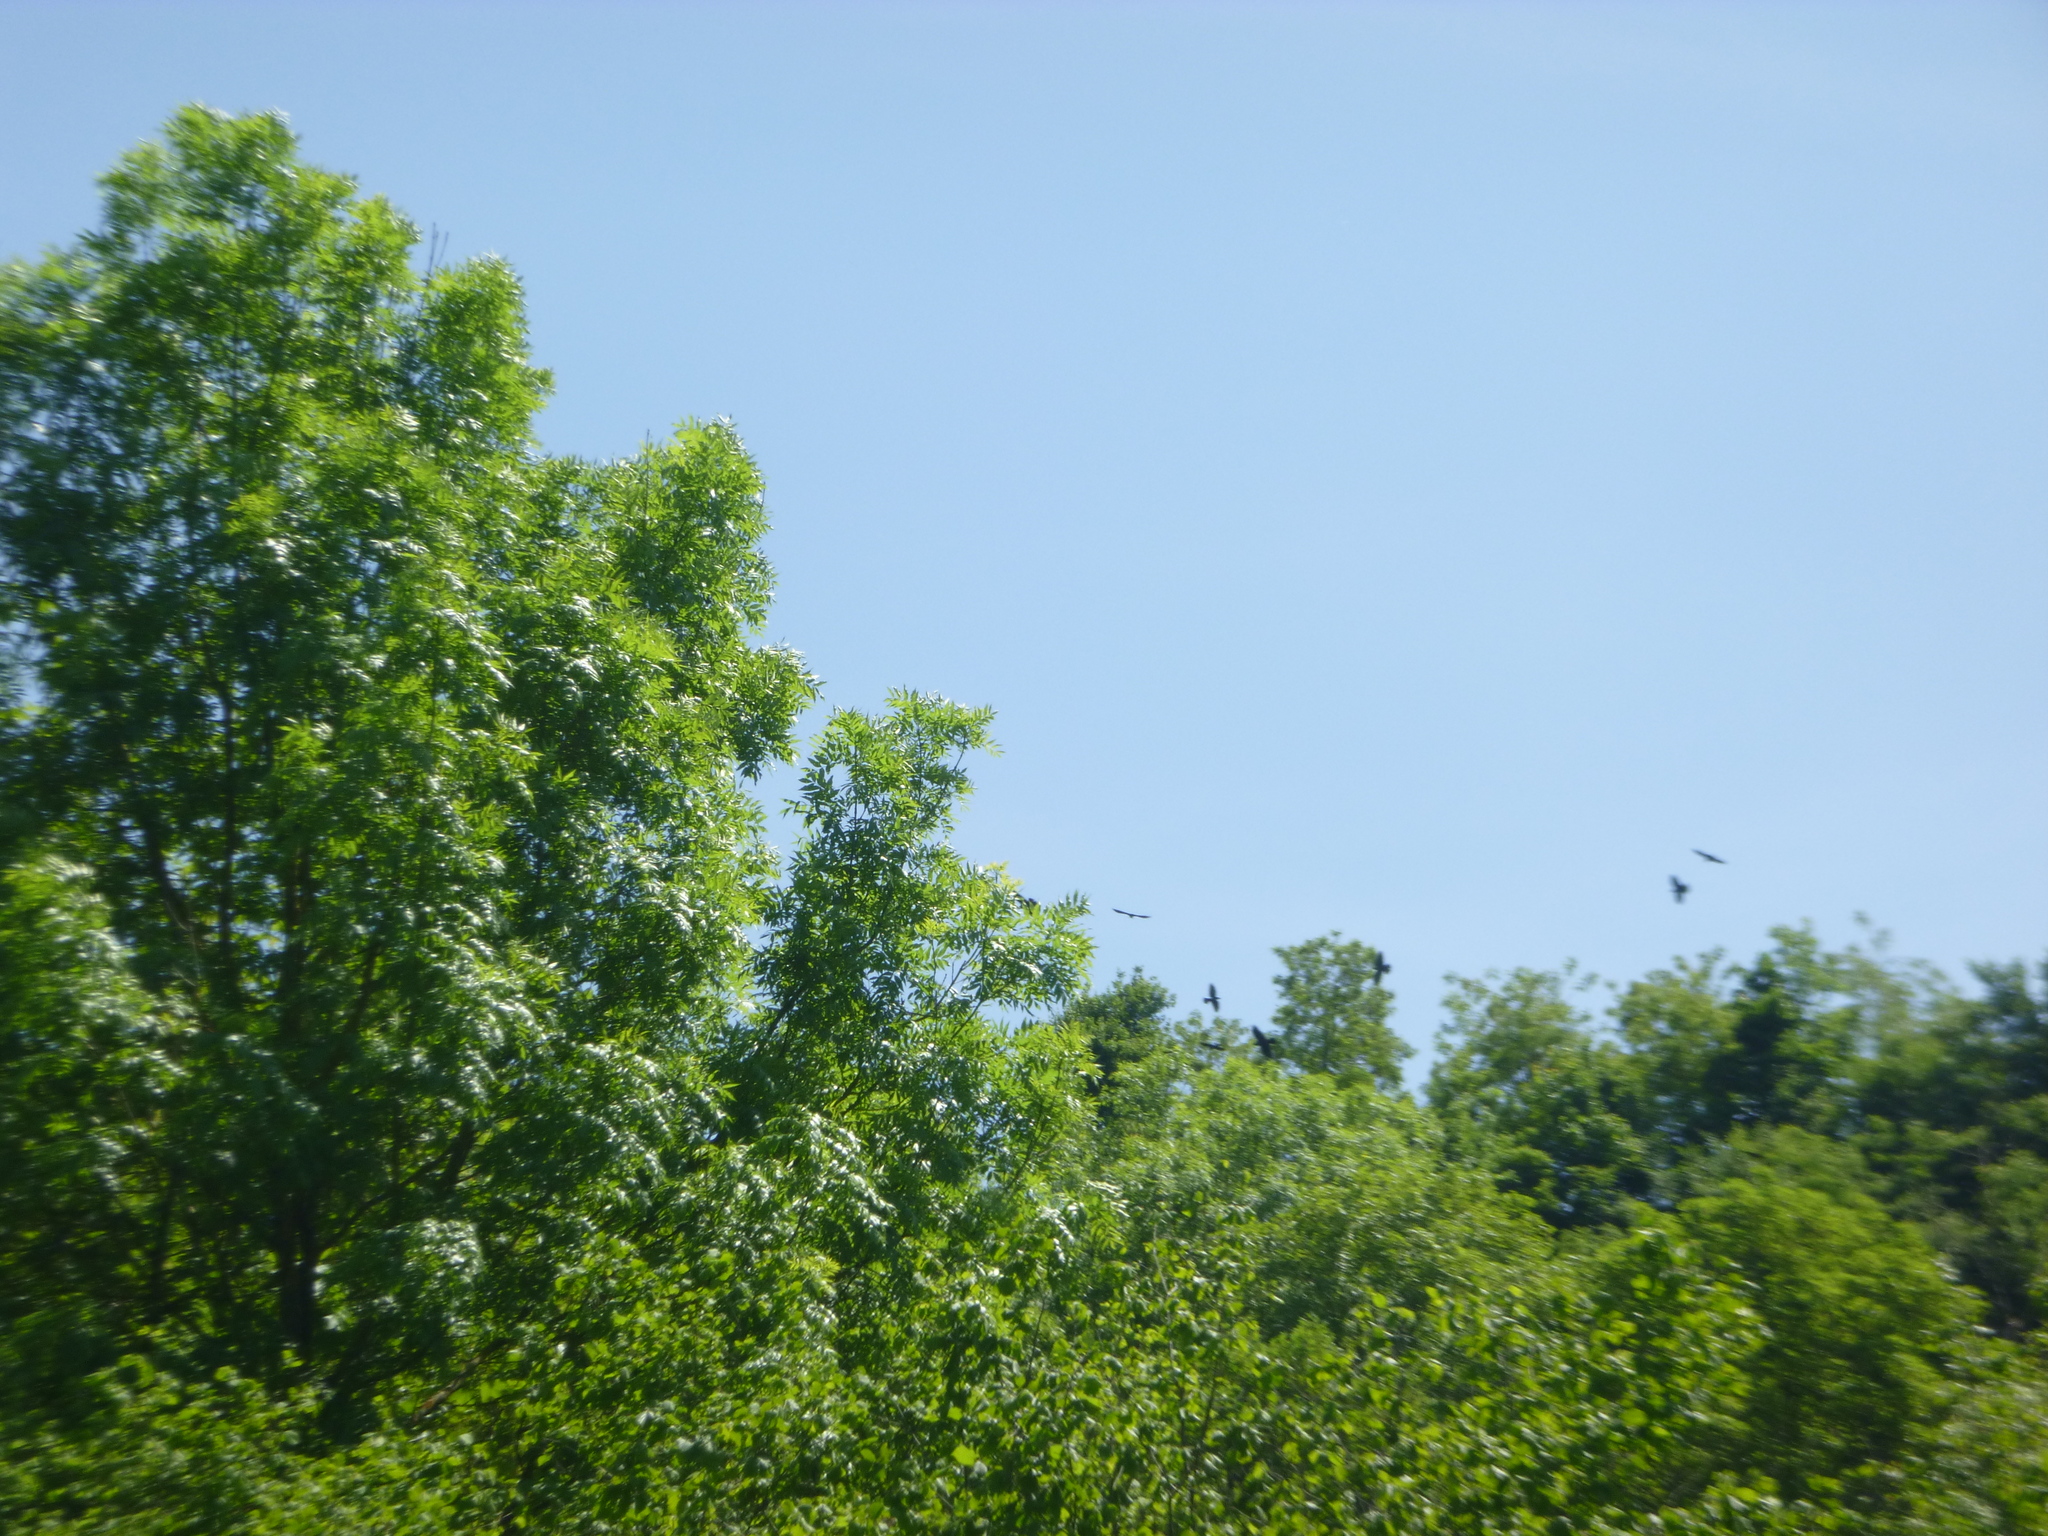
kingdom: Animalia
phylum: Chordata
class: Aves
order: Passeriformes
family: Corvidae
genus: Coloeus
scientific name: Coloeus monedula
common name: Western jackdaw
